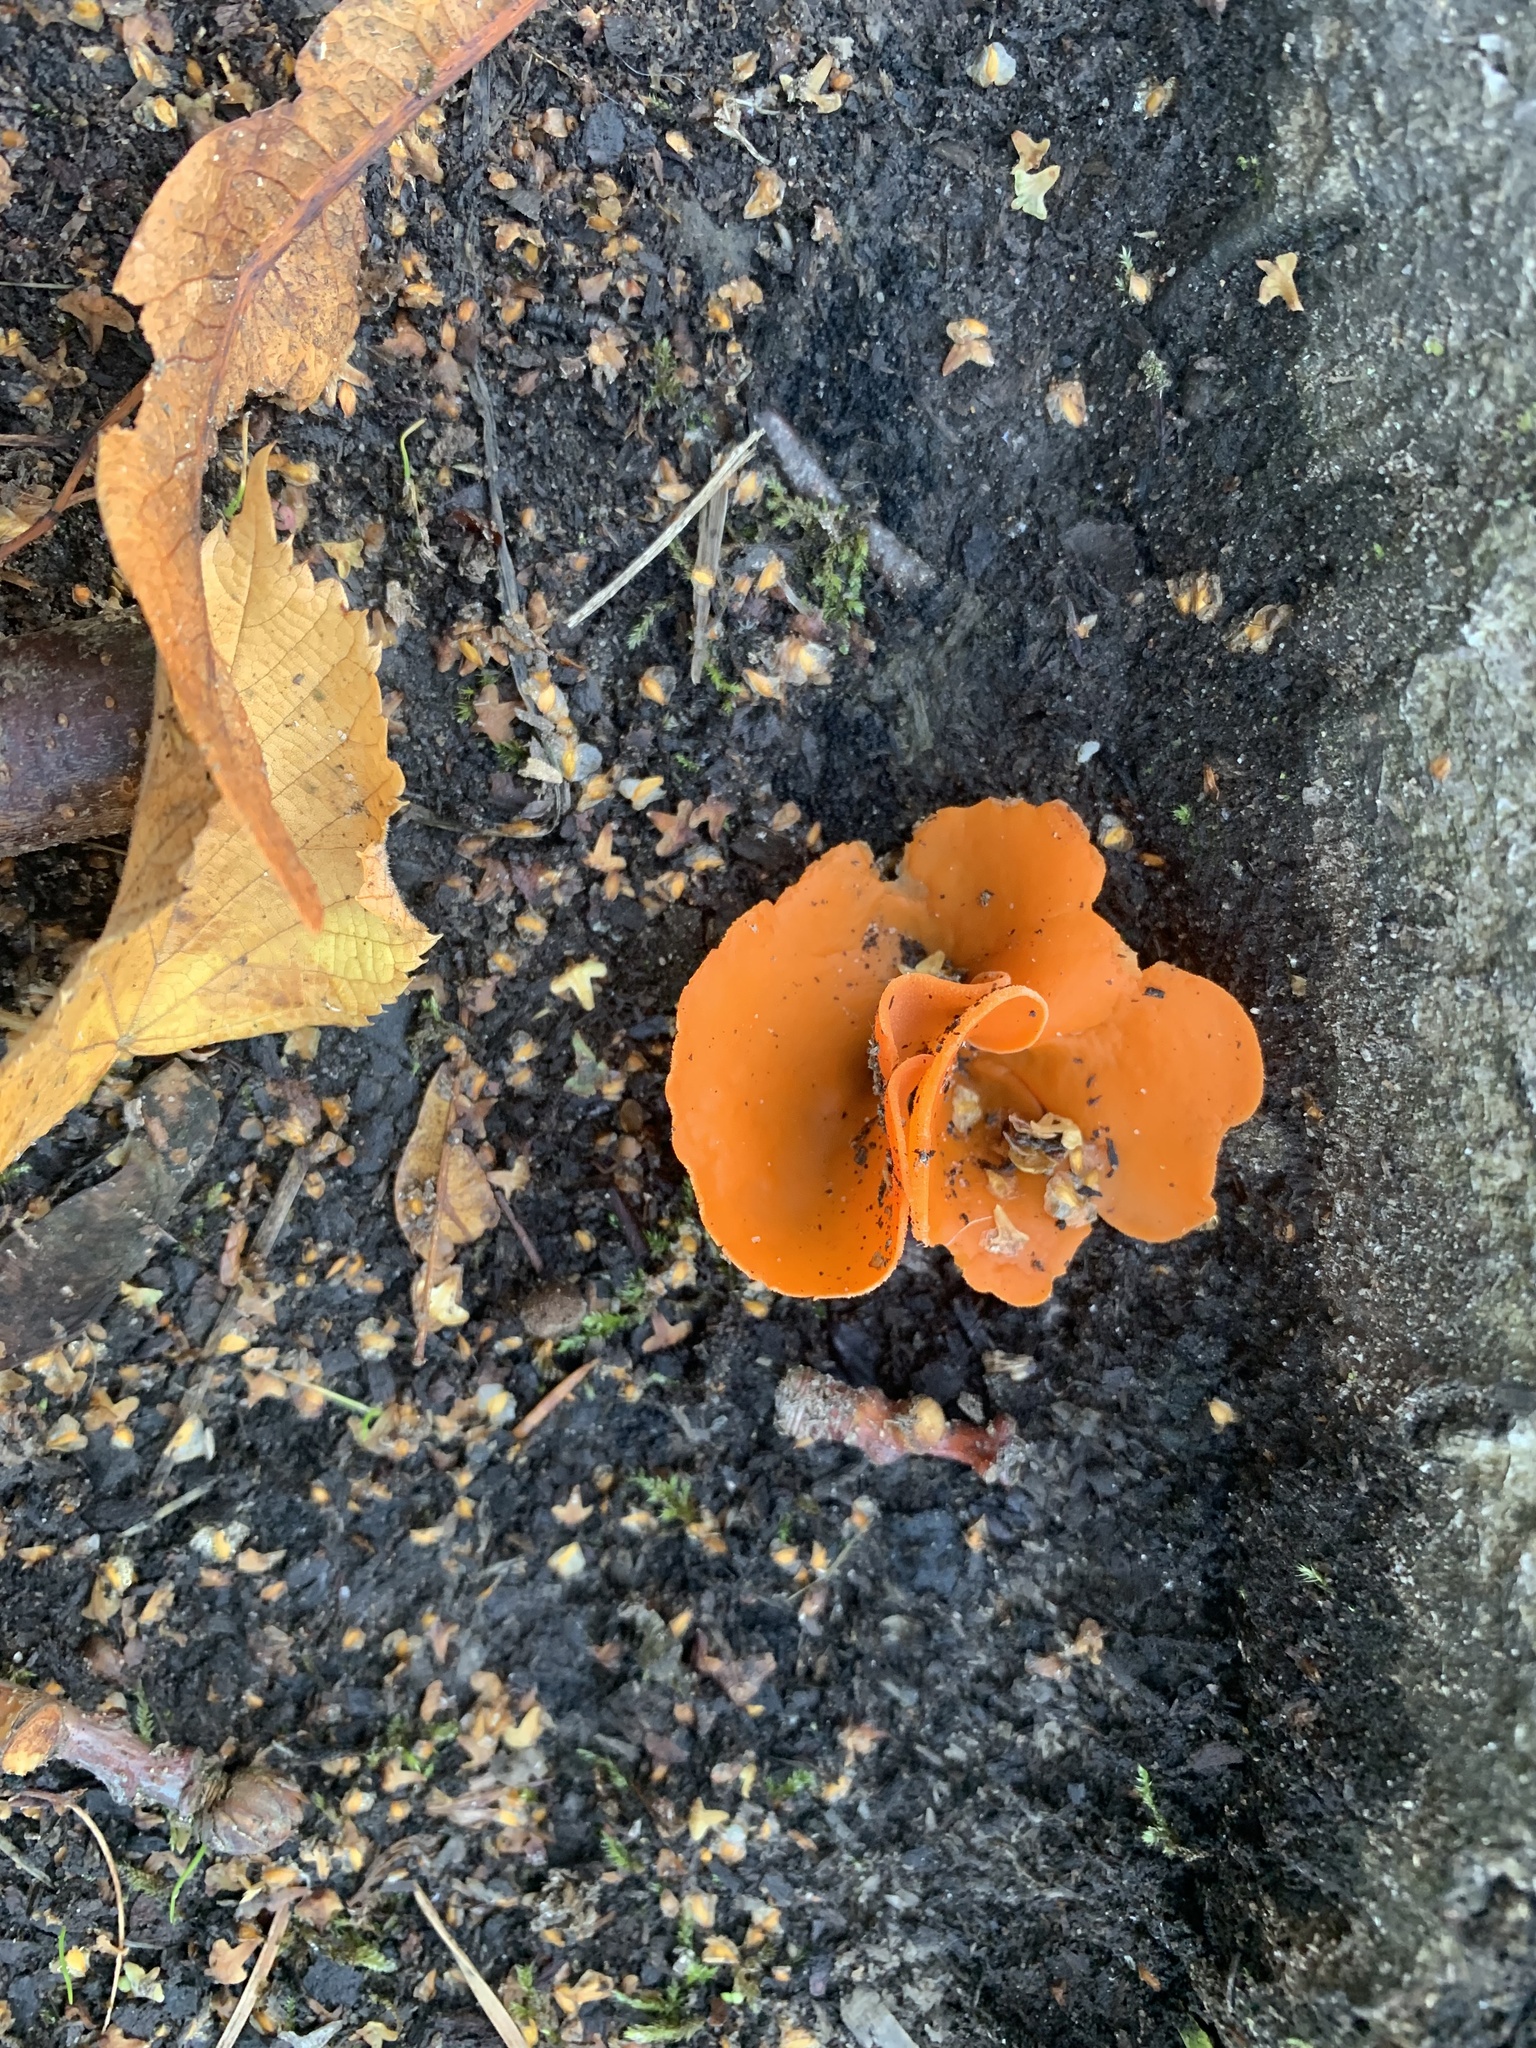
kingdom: Fungi
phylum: Ascomycota
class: Pezizomycetes
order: Pezizales
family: Pyronemataceae
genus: Aleuria
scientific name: Aleuria aurantia
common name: Orange peel fungus
